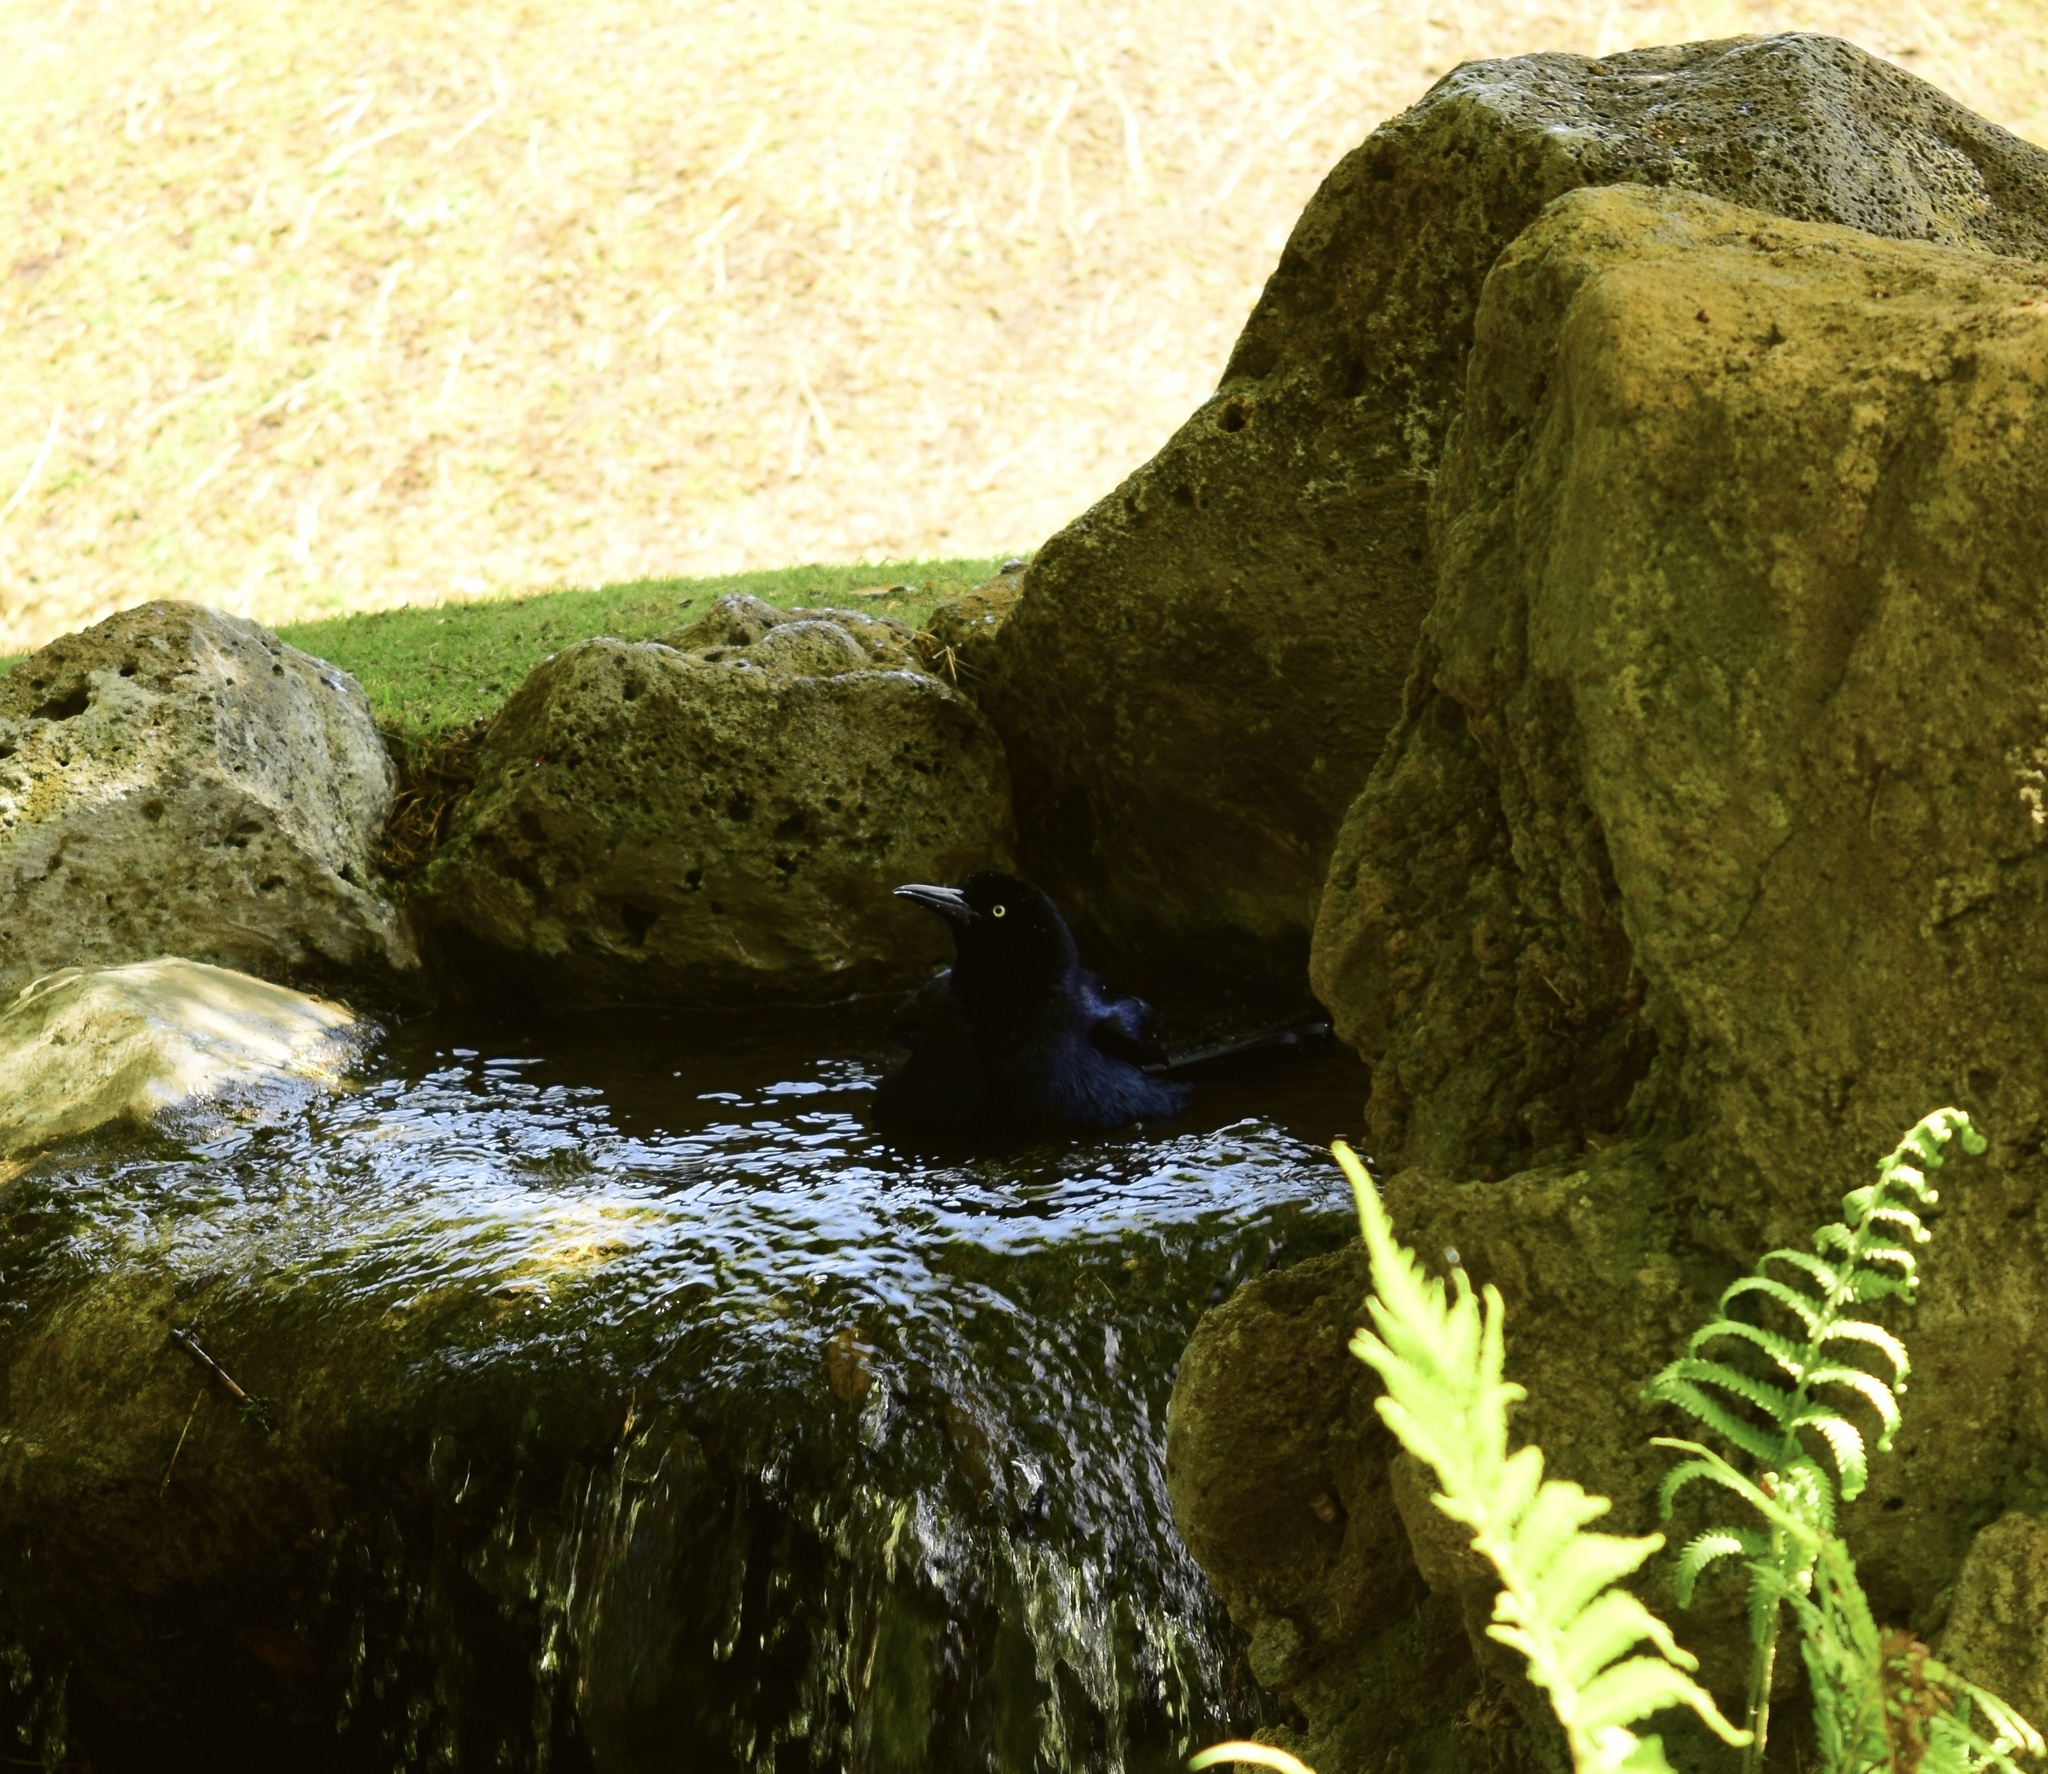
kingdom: Animalia
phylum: Chordata
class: Aves
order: Passeriformes
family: Icteridae
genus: Quiscalus
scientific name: Quiscalus mexicanus
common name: Great-tailed grackle
